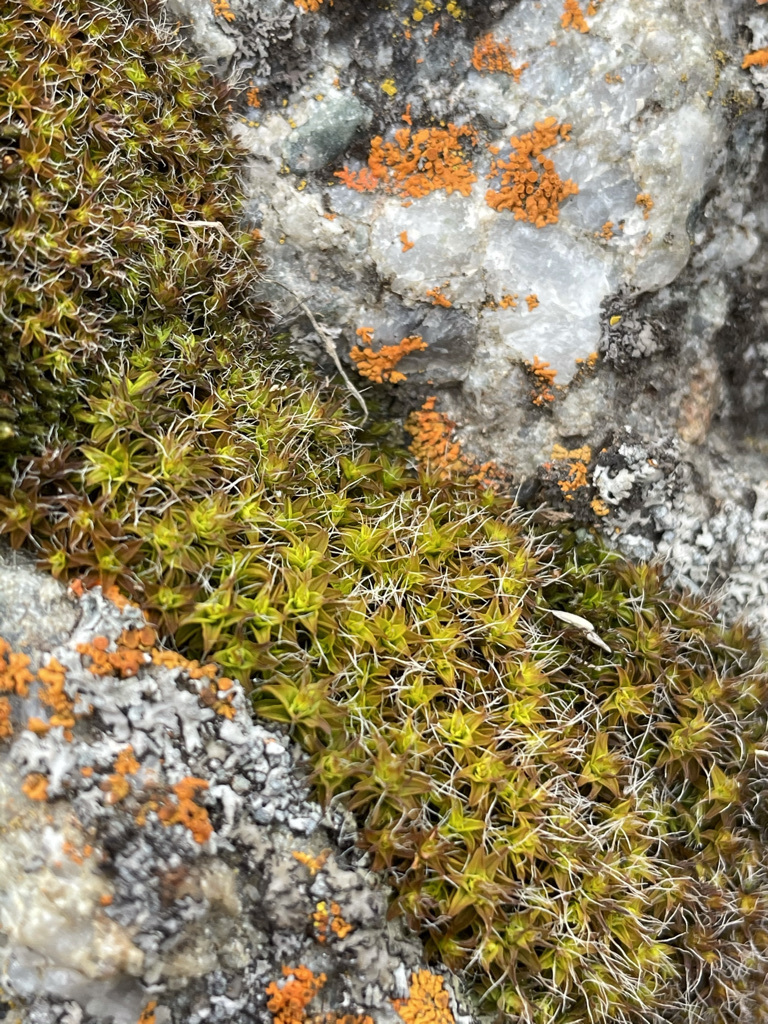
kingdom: Plantae
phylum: Bryophyta
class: Bryopsida
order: Pottiales
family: Pottiaceae
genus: Syntrichia
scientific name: Syntrichia ruralis
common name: Sidewalk screw moss
